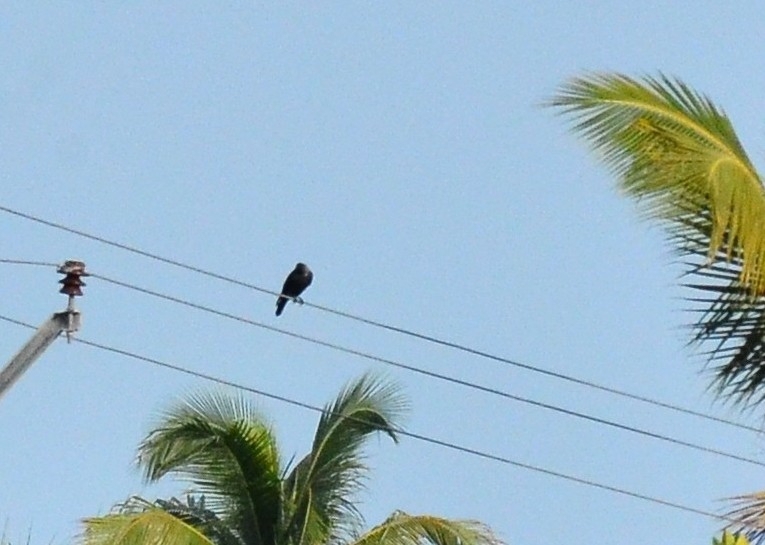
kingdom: Animalia
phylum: Chordata
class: Aves
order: Passeriformes
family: Corvidae
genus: Corvus
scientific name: Corvus splendens
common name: House crow
